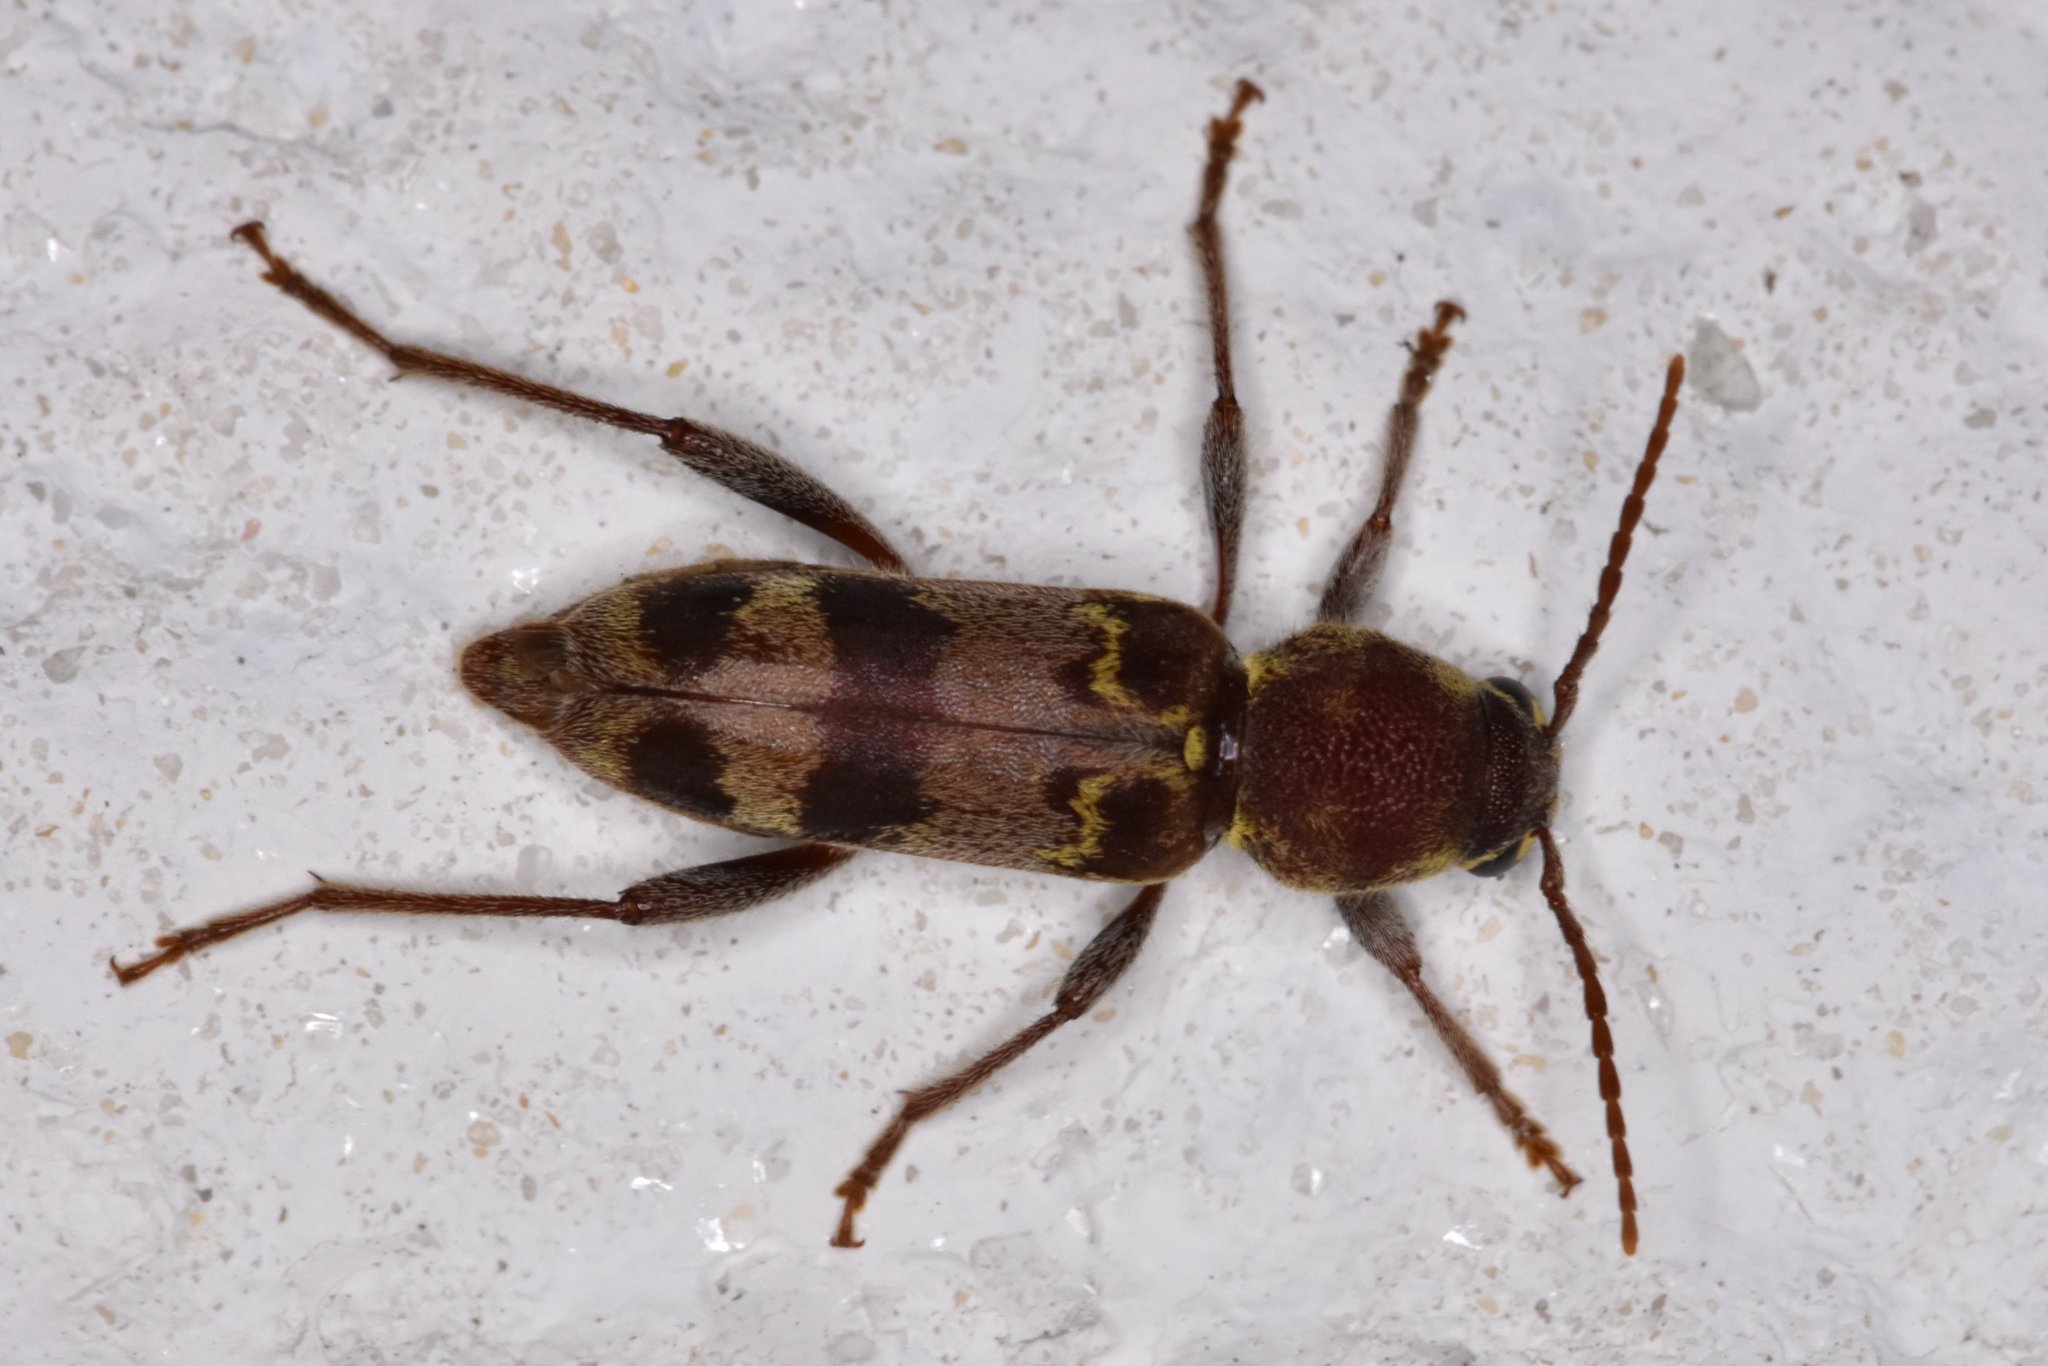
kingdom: Animalia
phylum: Arthropoda
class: Insecta
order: Coleoptera
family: Cerambycidae
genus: Xylotrechus
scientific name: Xylotrechus colonus
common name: Long-horned beetle
